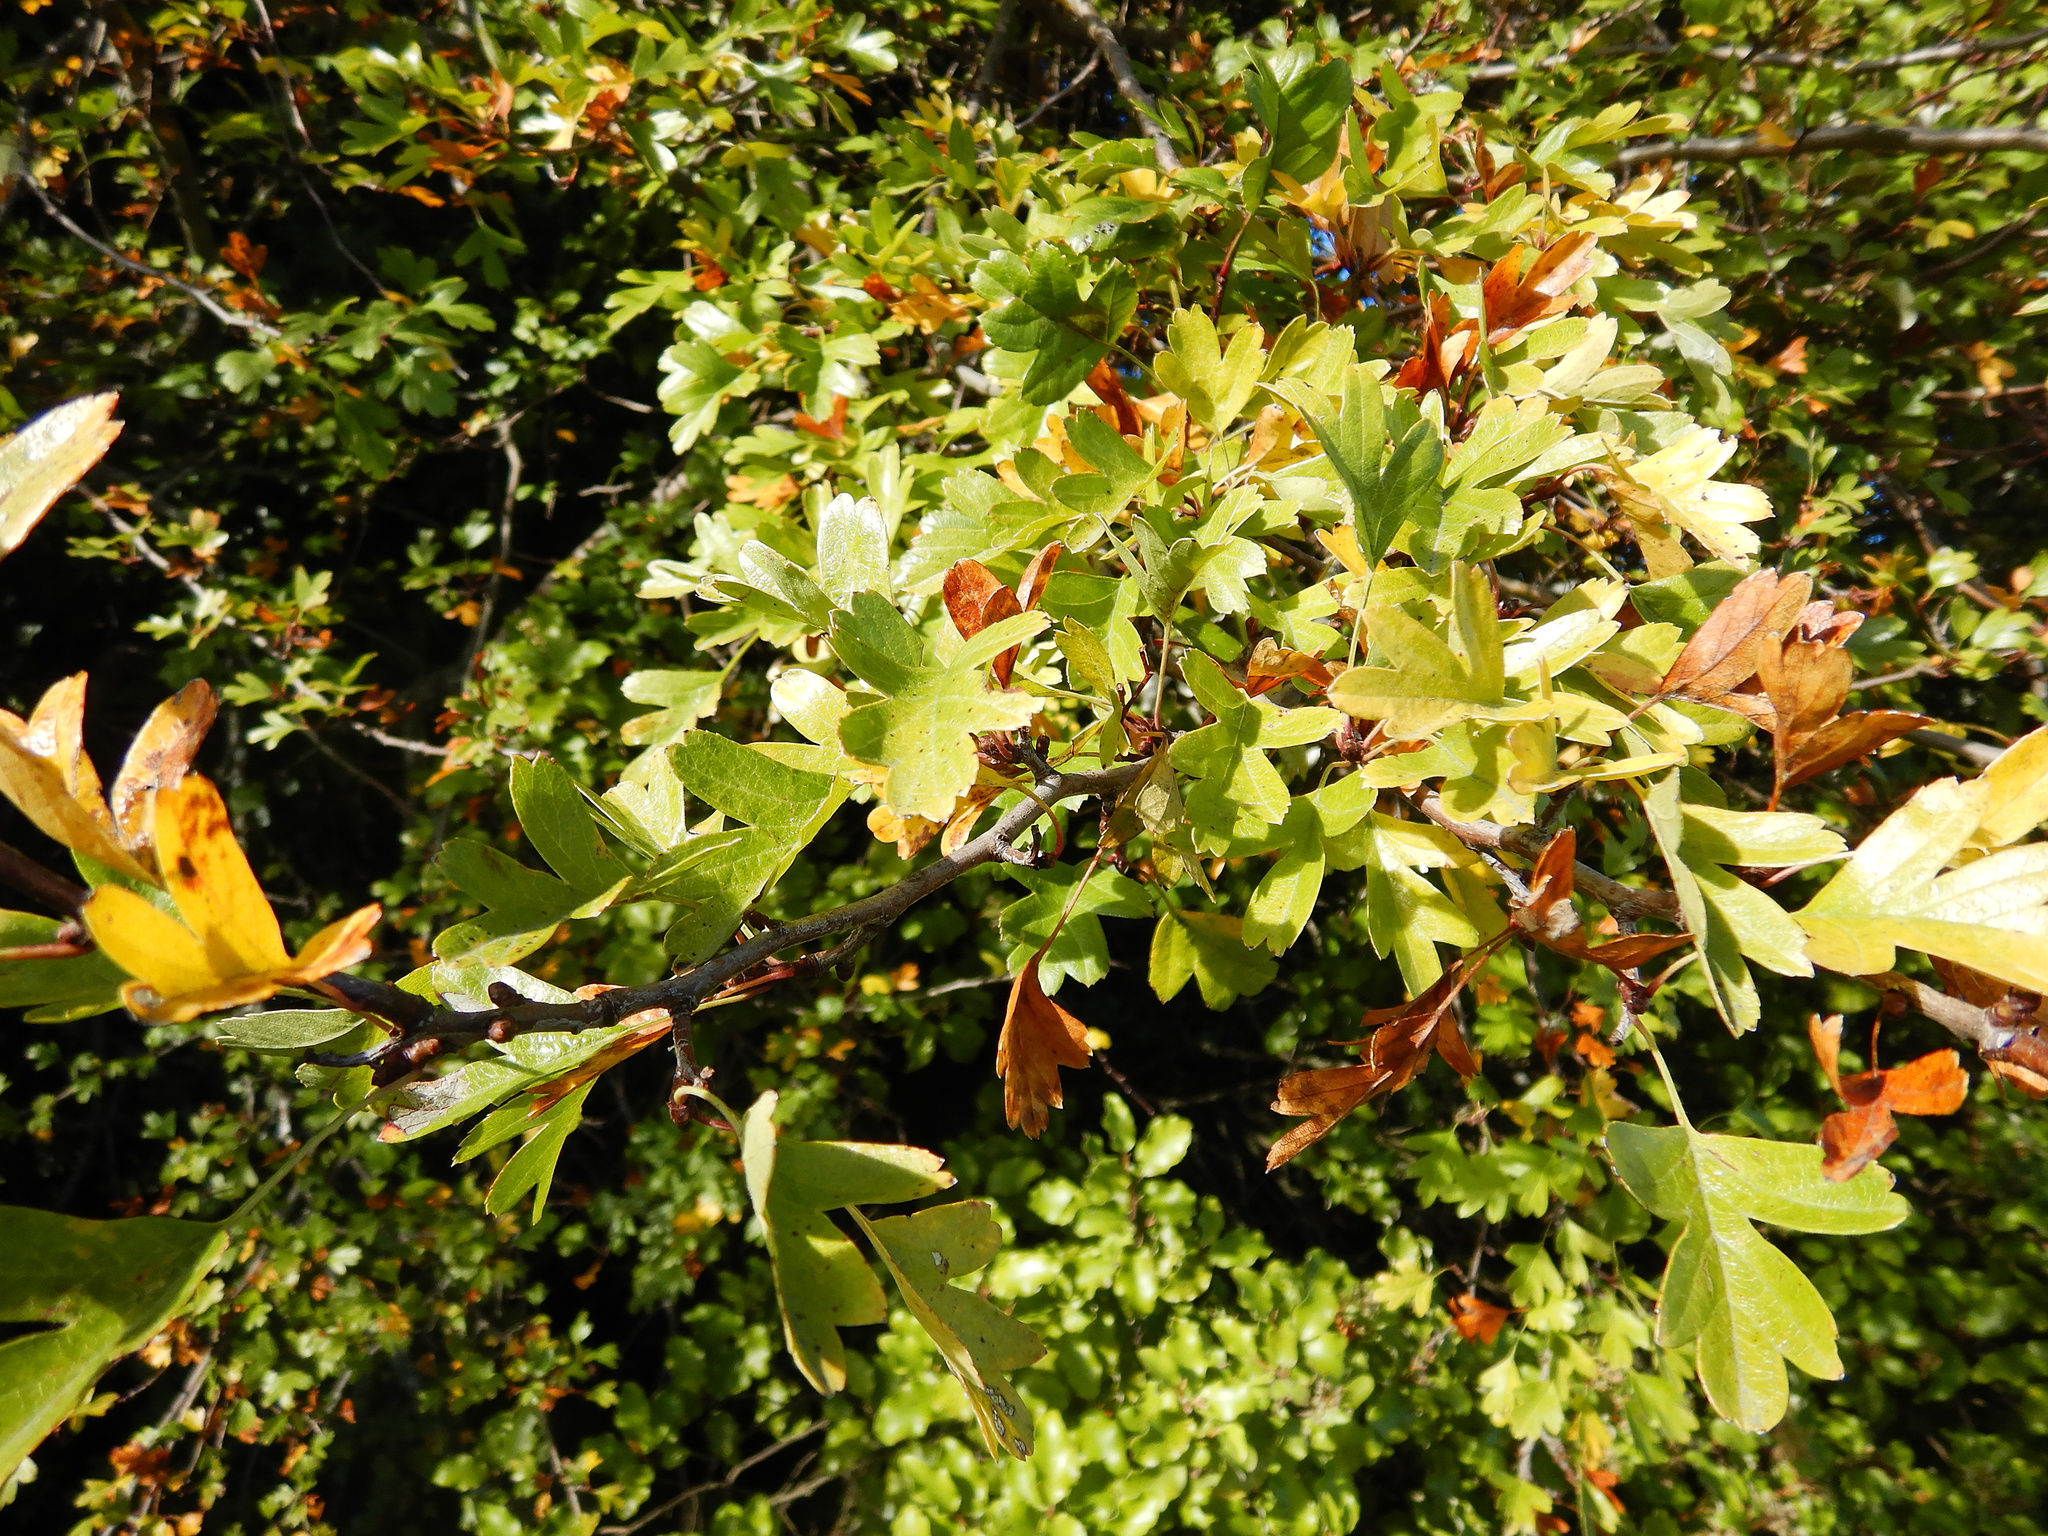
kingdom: Plantae
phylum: Tracheophyta
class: Magnoliopsida
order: Rosales
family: Rosaceae
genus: Crataegus
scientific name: Crataegus monogyna
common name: Hawthorn
